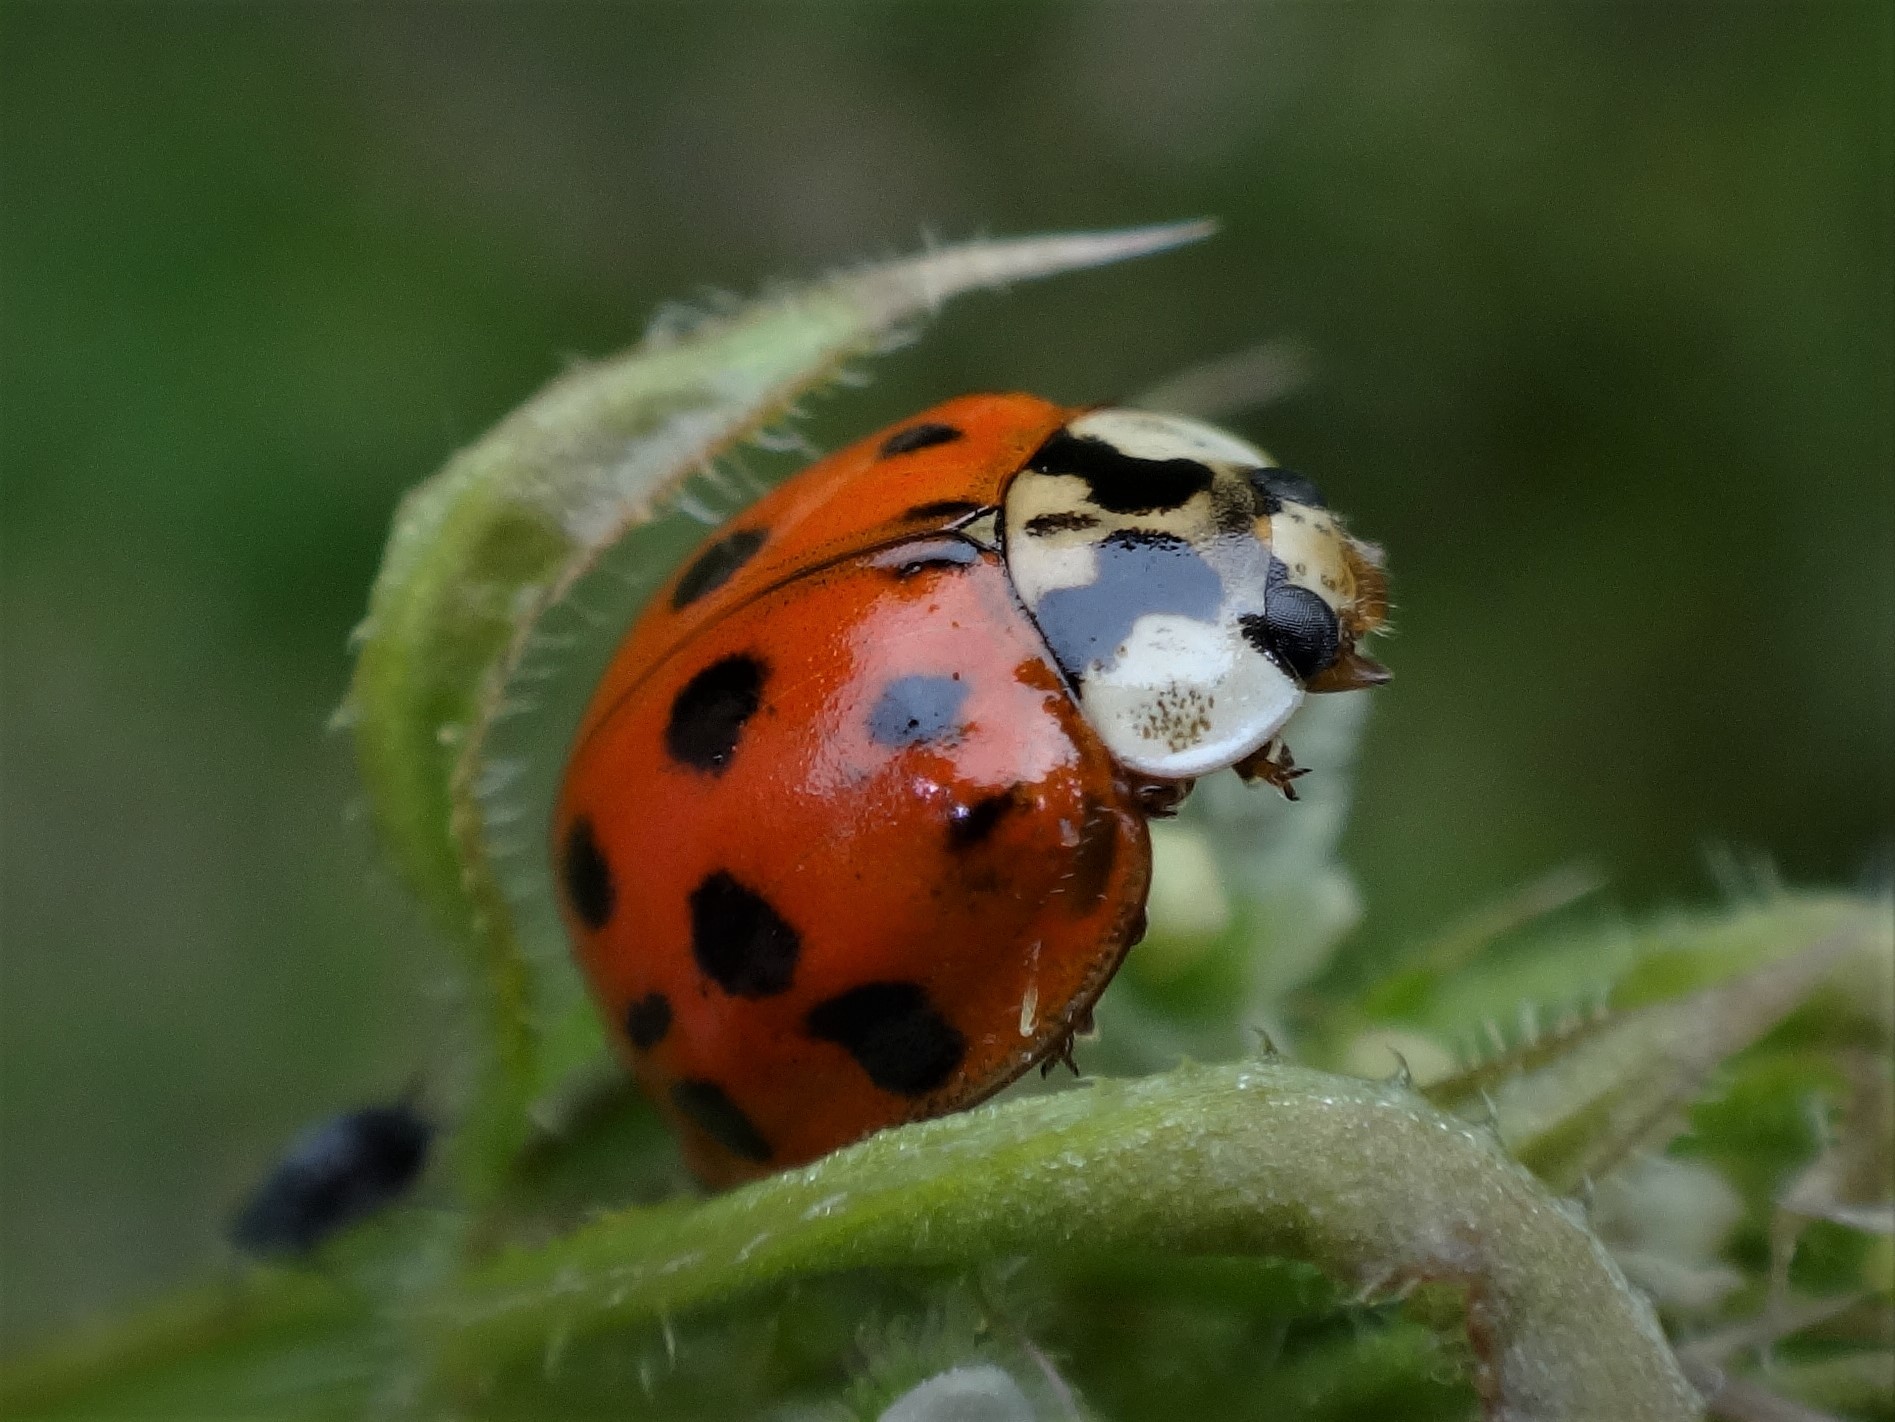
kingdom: Animalia
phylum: Arthropoda
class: Insecta
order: Coleoptera
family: Coccinellidae
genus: Harmonia
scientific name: Harmonia axyridis
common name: Harlequin ladybird
